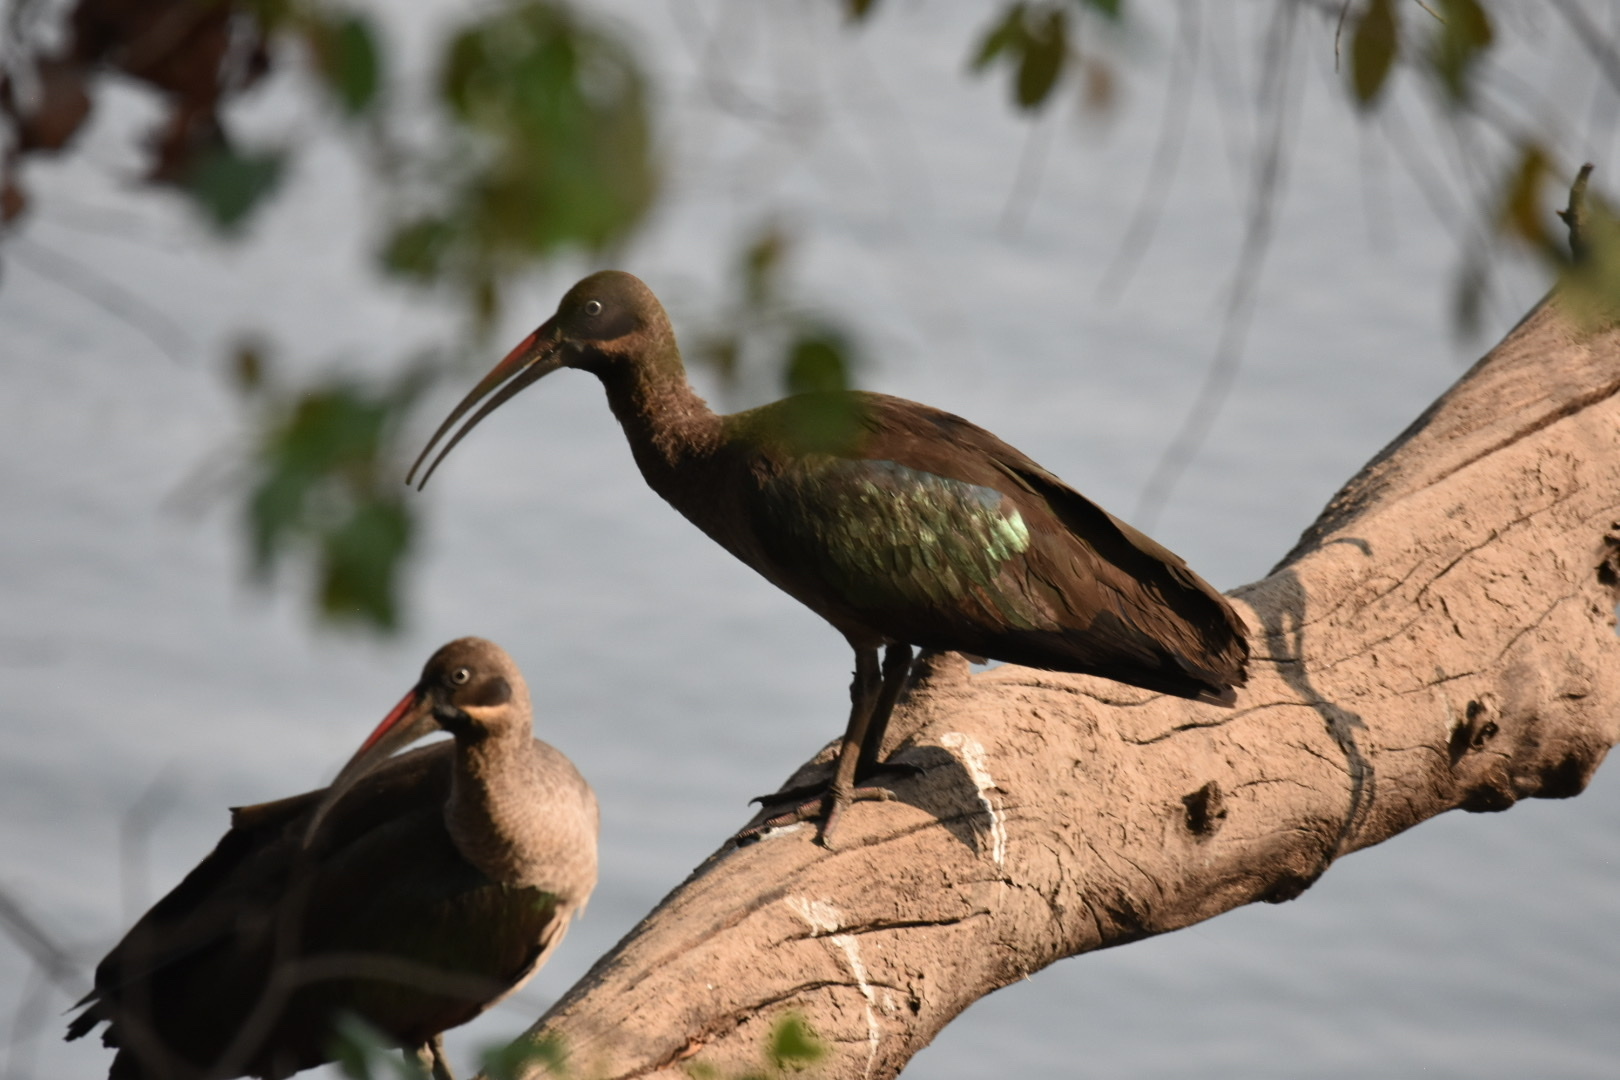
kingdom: Animalia
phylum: Chordata
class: Aves
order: Pelecaniformes
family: Threskiornithidae
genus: Bostrychia
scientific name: Bostrychia hagedash
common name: Hadada ibis
